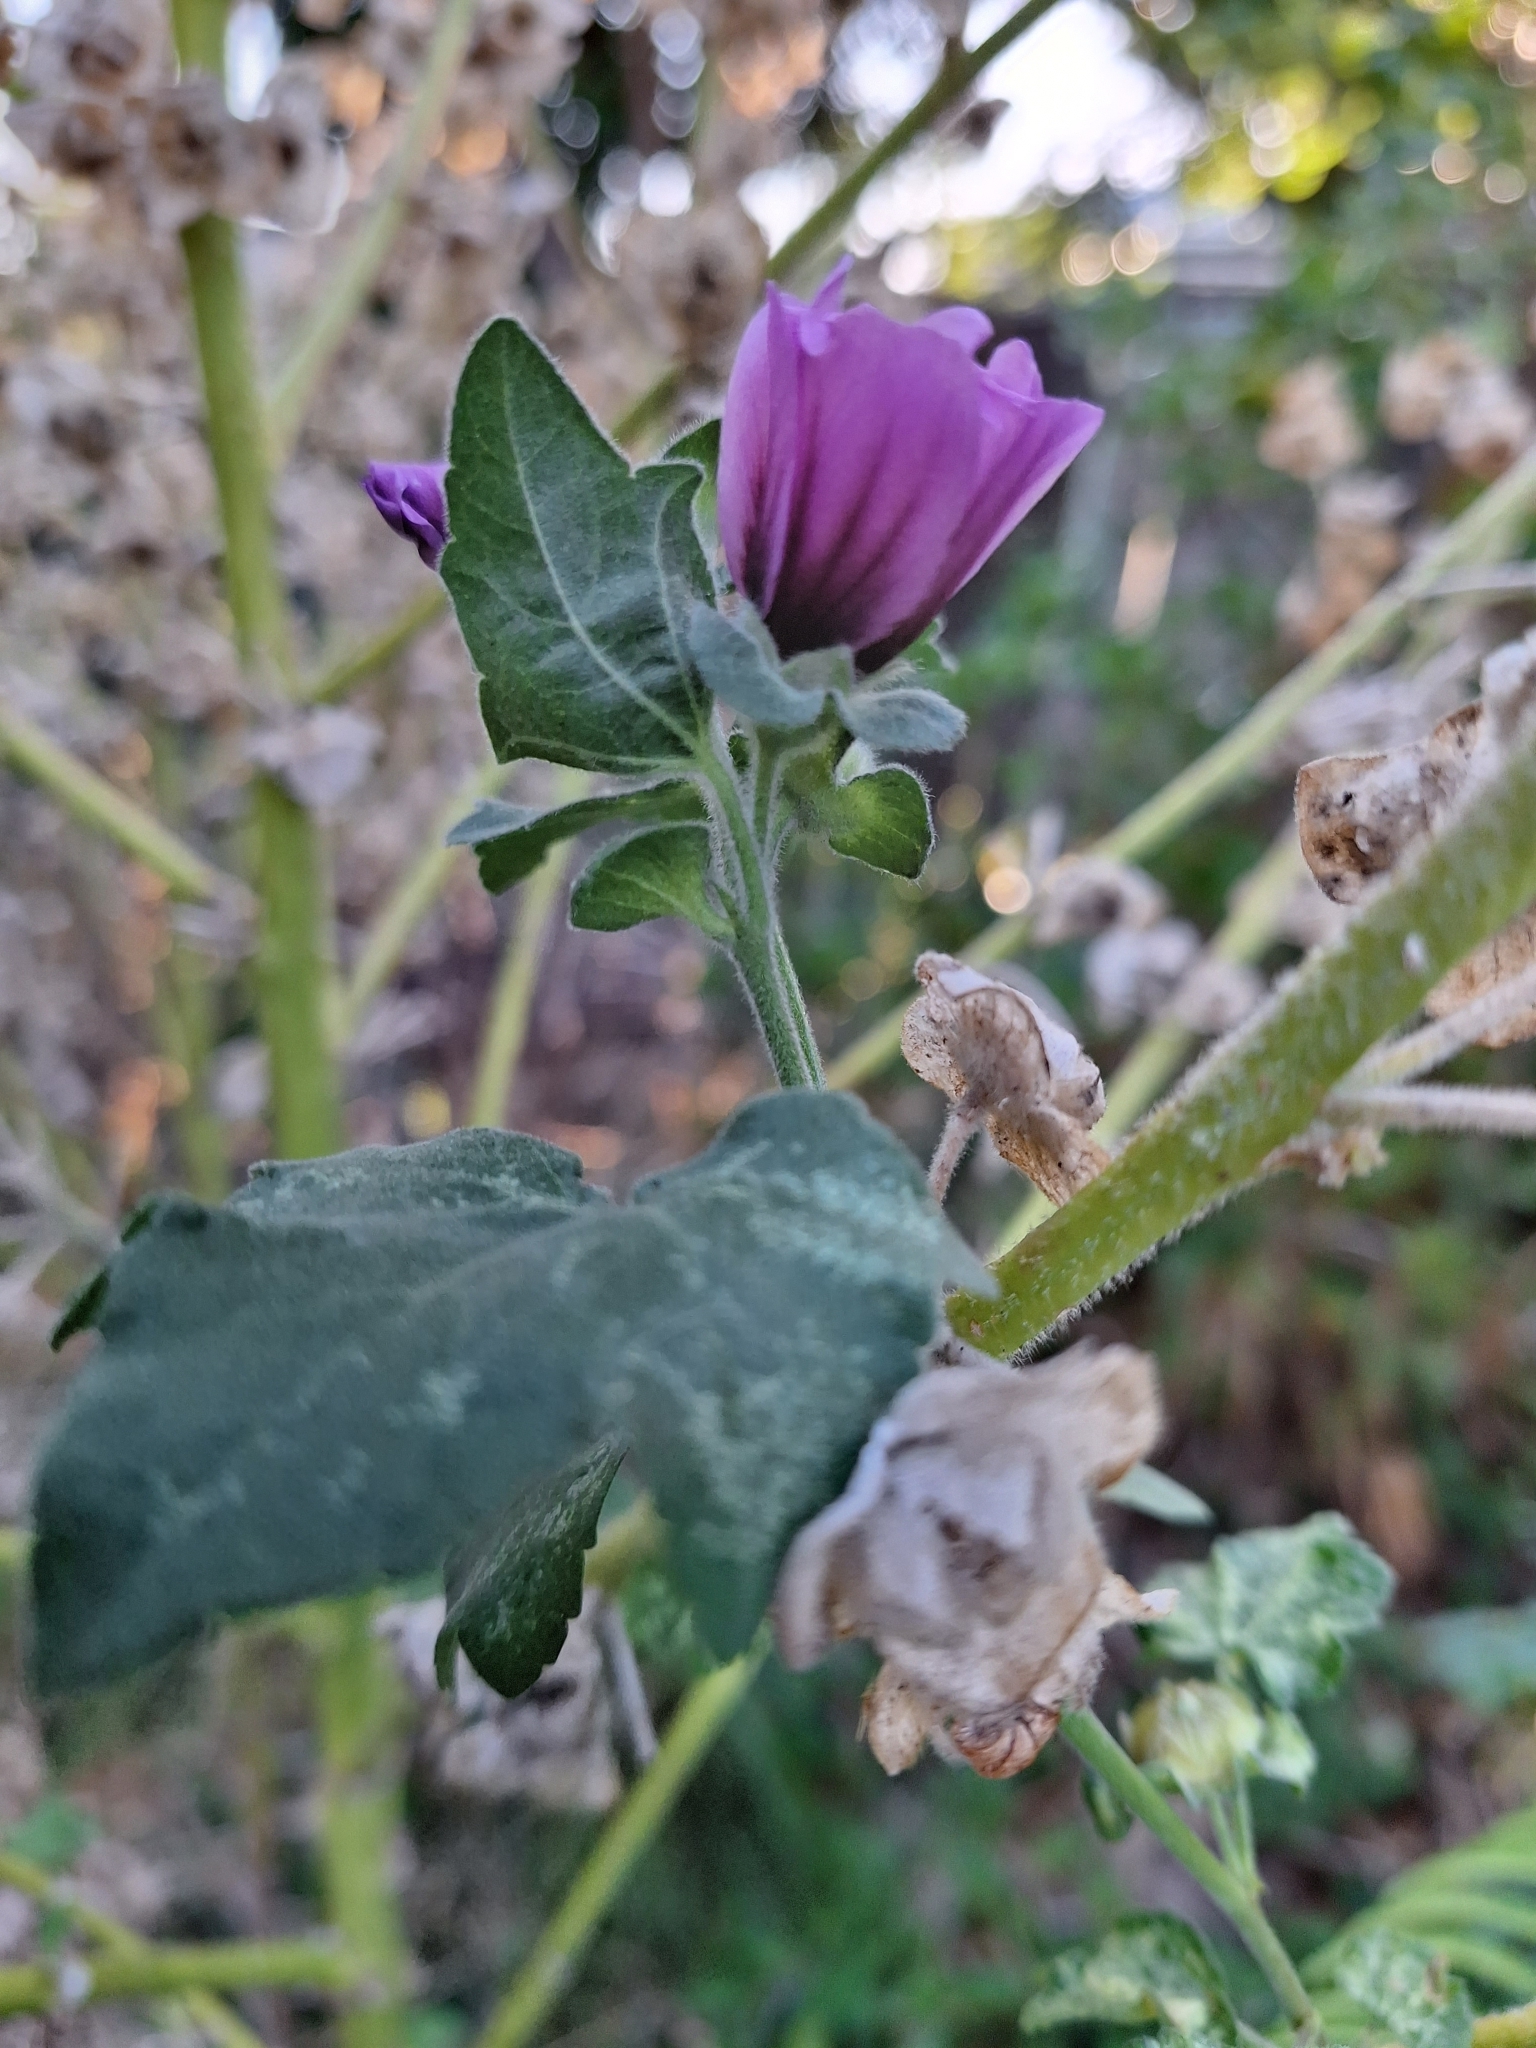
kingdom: Plantae
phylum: Tracheophyta
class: Magnoliopsida
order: Malvales
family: Malvaceae
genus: Malva
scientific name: Malva arborea
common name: Tree mallow
